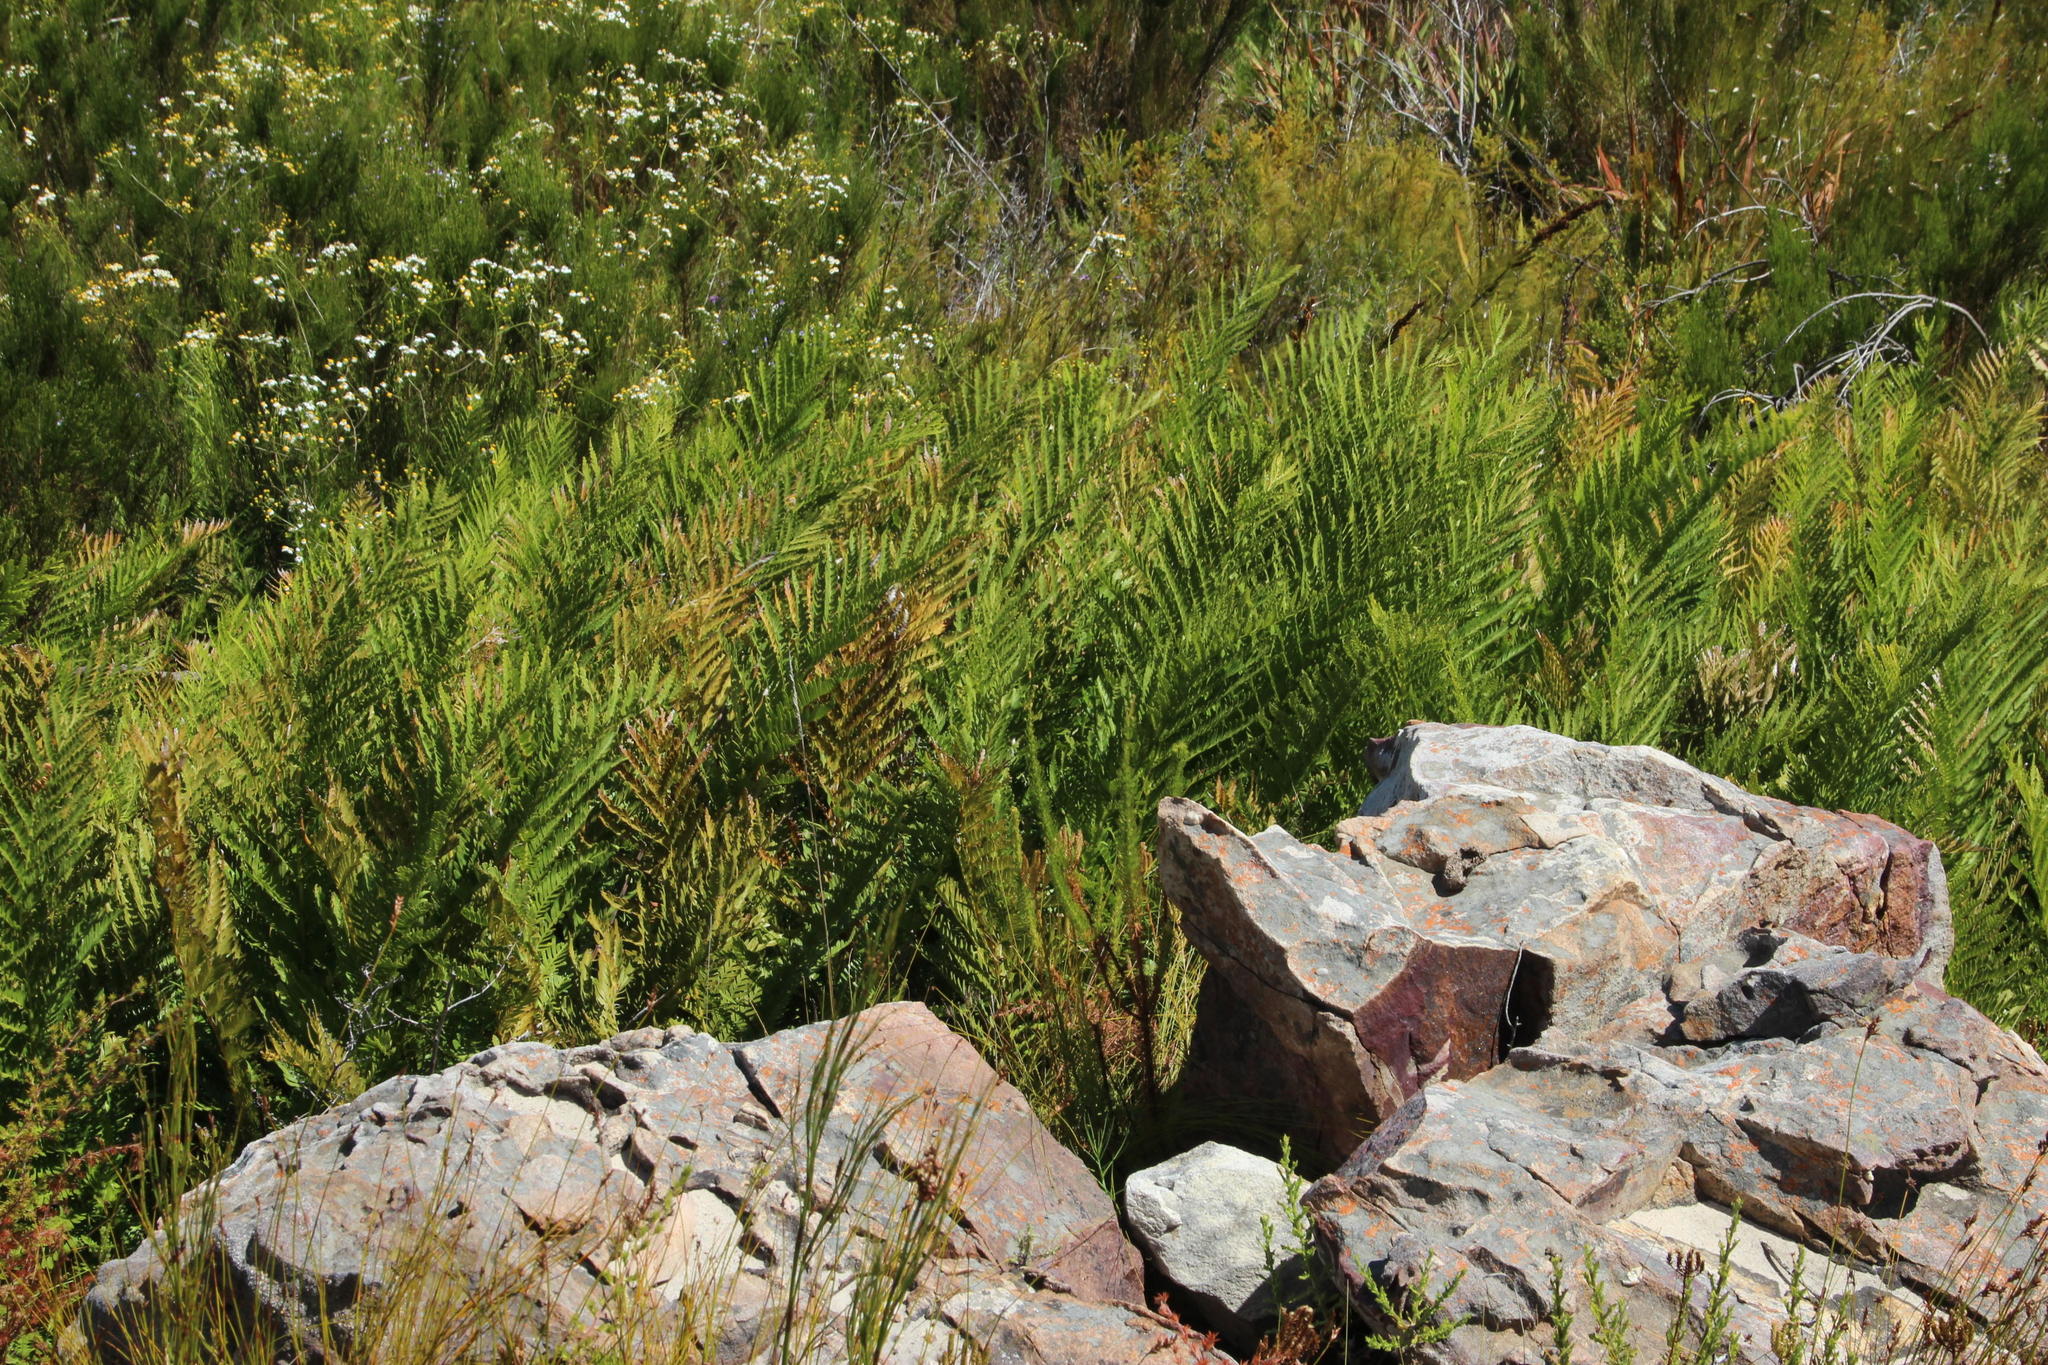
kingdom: Plantae
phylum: Tracheophyta
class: Polypodiopsida
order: Osmundales
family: Osmundaceae
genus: Todea
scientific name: Todea barbara
